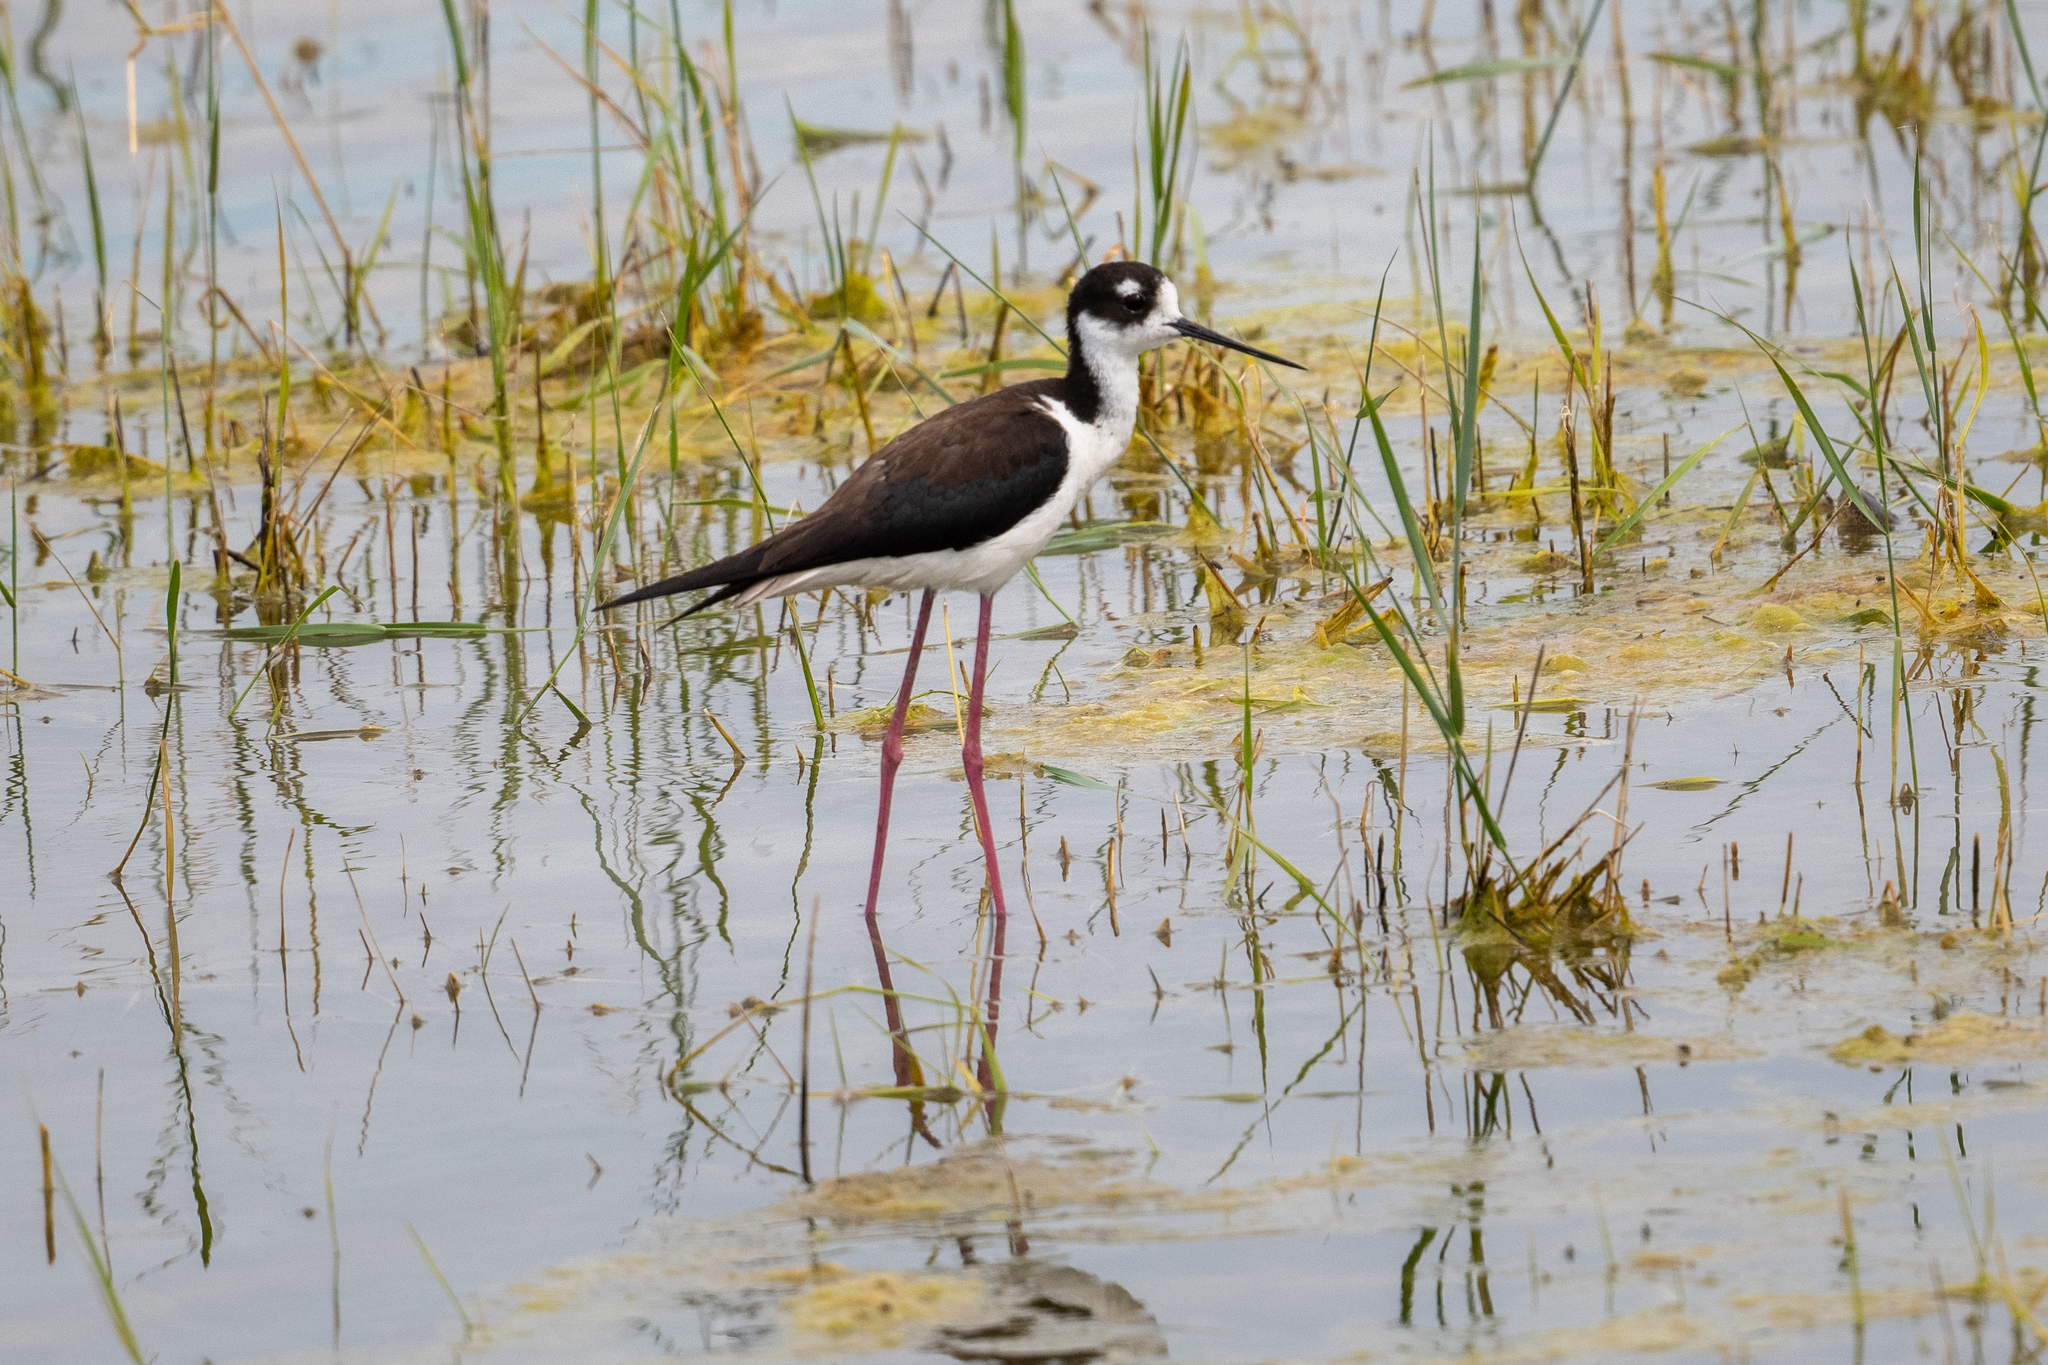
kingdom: Animalia
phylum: Chordata
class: Aves
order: Charadriiformes
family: Recurvirostridae
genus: Himantopus
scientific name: Himantopus mexicanus
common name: Black-necked stilt
